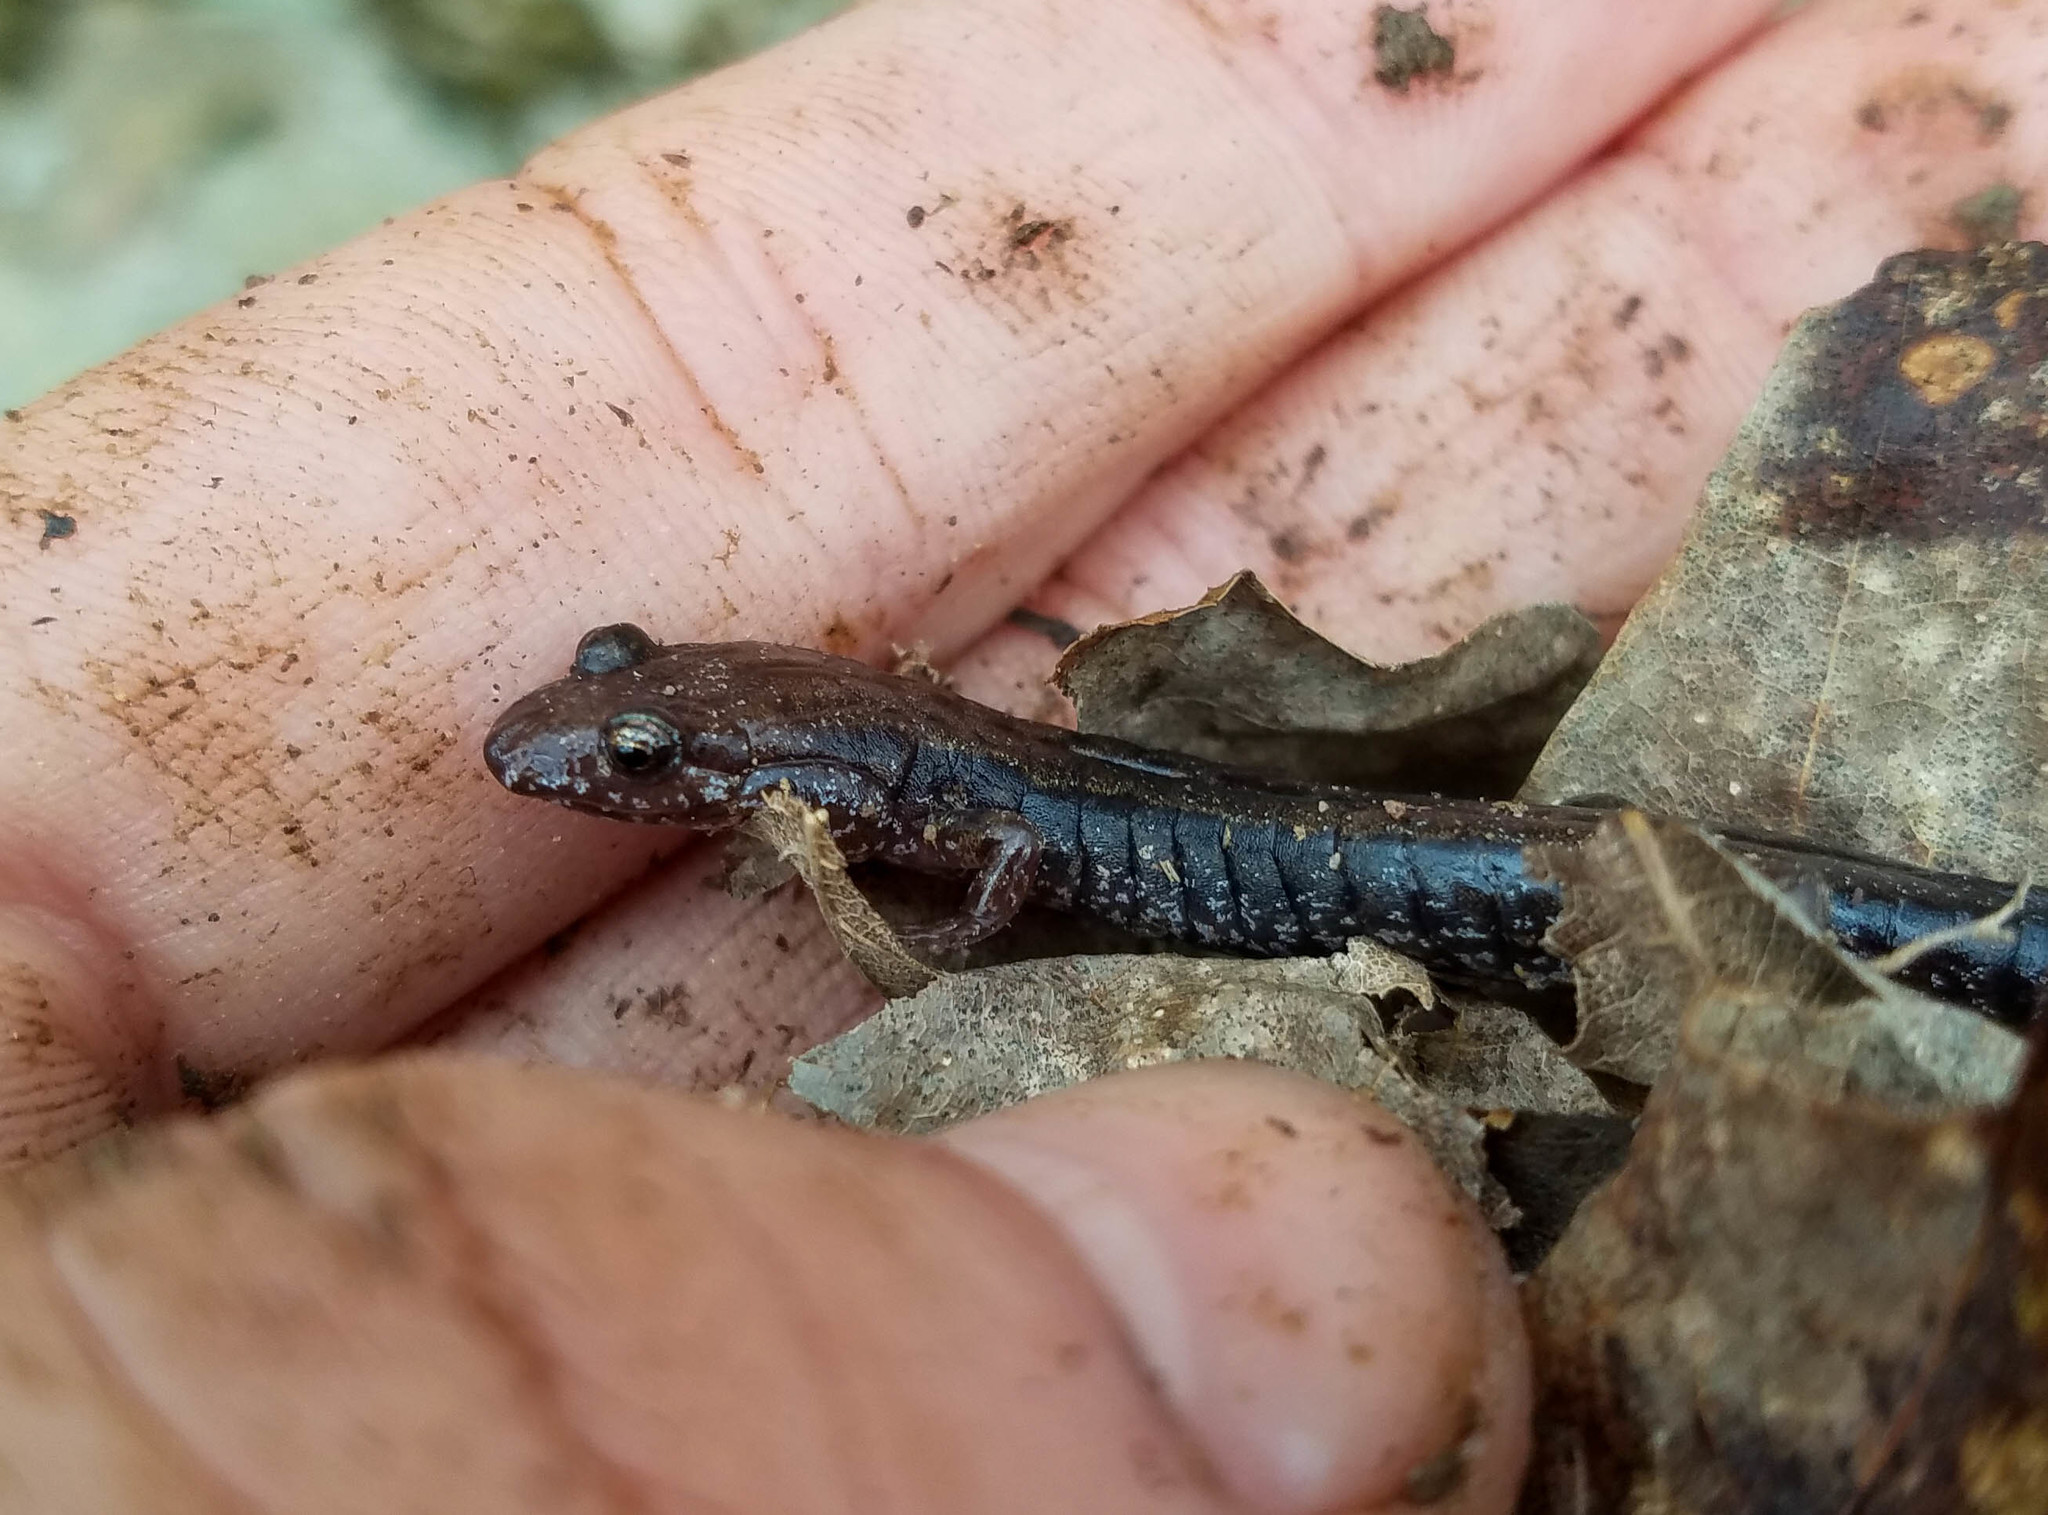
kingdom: Animalia
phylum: Chordata
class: Amphibia
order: Caudata
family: Plethodontidae
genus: Desmognathus
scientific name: Desmognathus ochrophaeus
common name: Allegheny mountain dusky salamander
